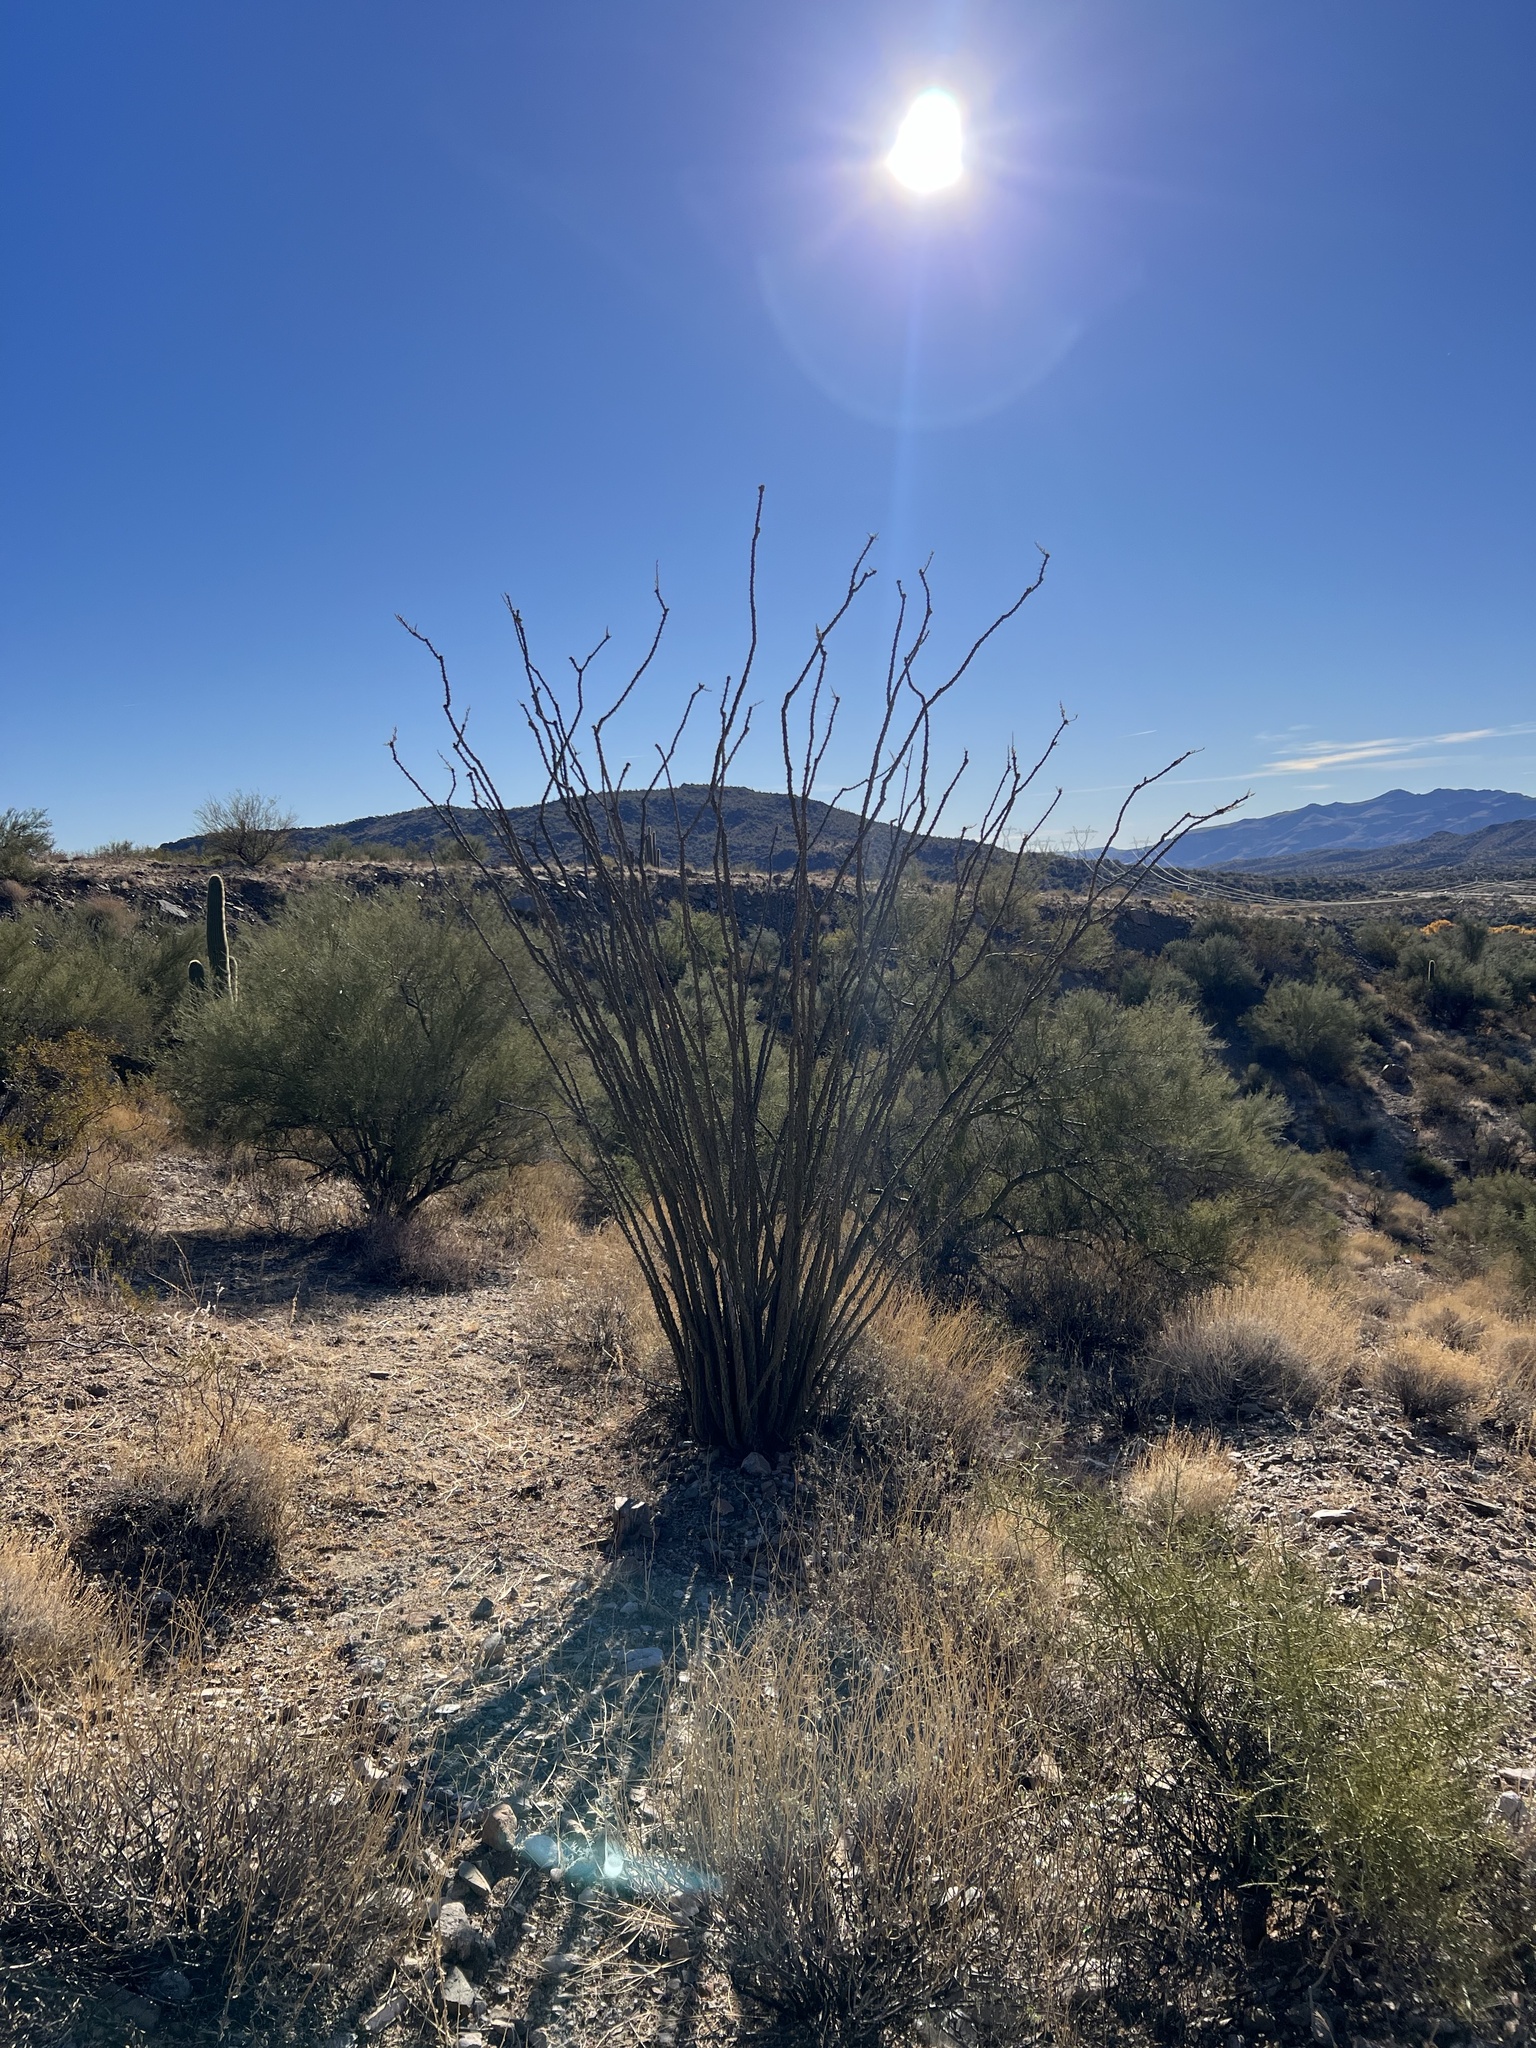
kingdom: Plantae
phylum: Tracheophyta
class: Magnoliopsida
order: Ericales
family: Fouquieriaceae
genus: Fouquieria
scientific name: Fouquieria splendens
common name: Vine-cactus
